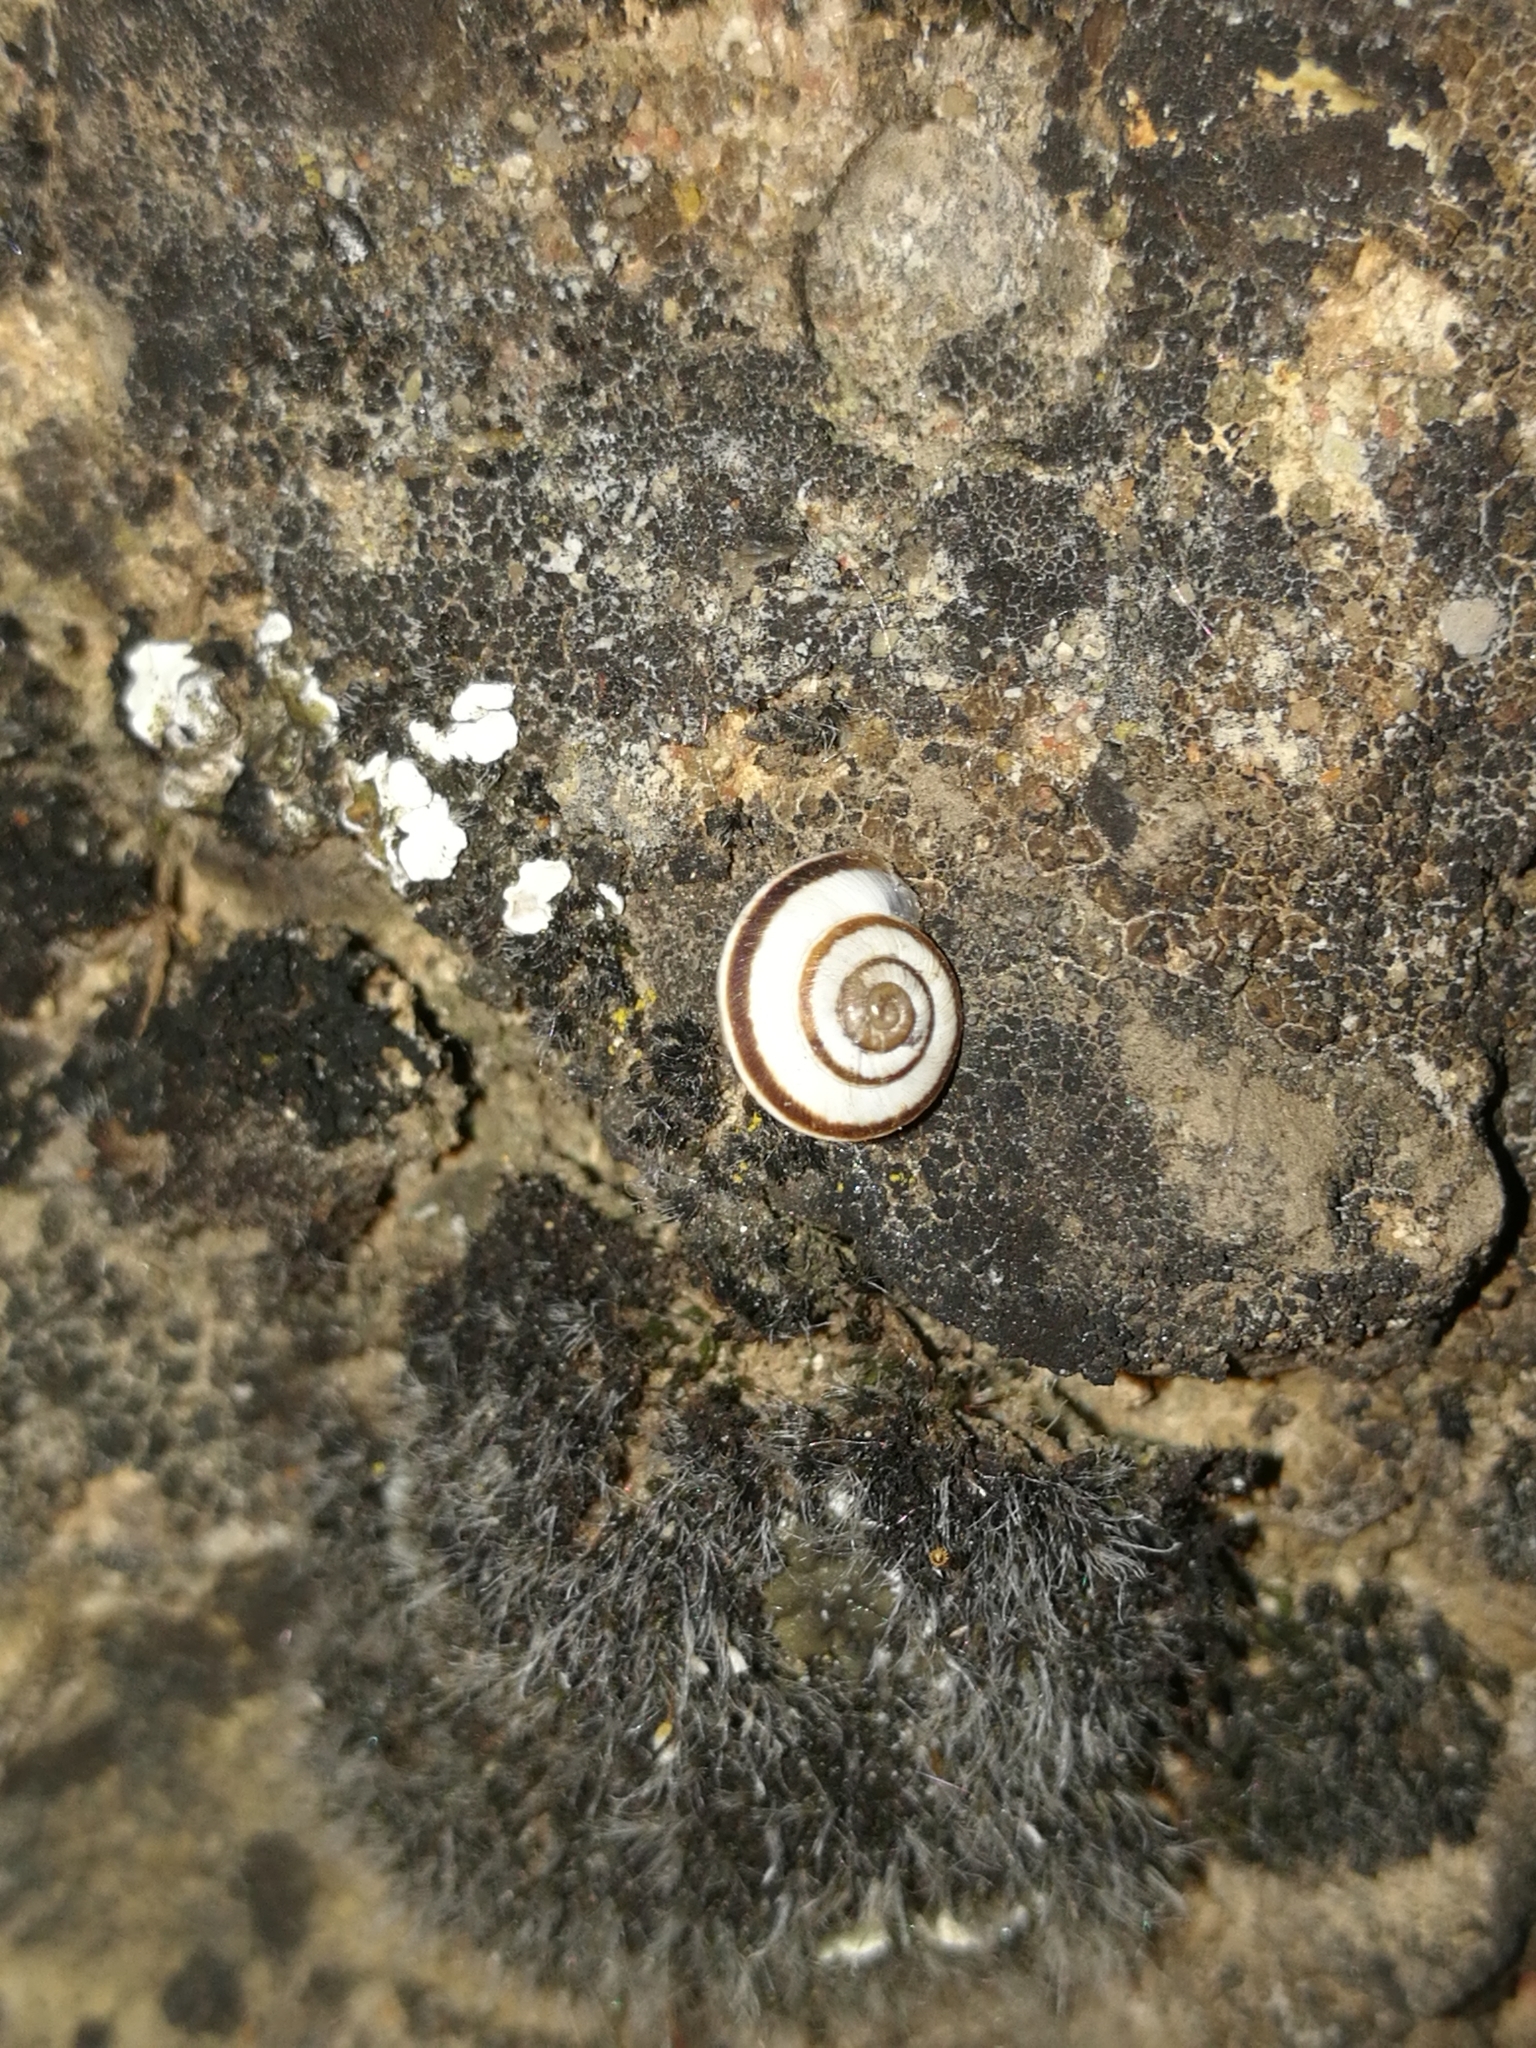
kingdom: Animalia
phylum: Mollusca
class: Gastropoda
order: Stylommatophora
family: Geomitridae
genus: Cernuella
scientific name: Cernuella virgata
